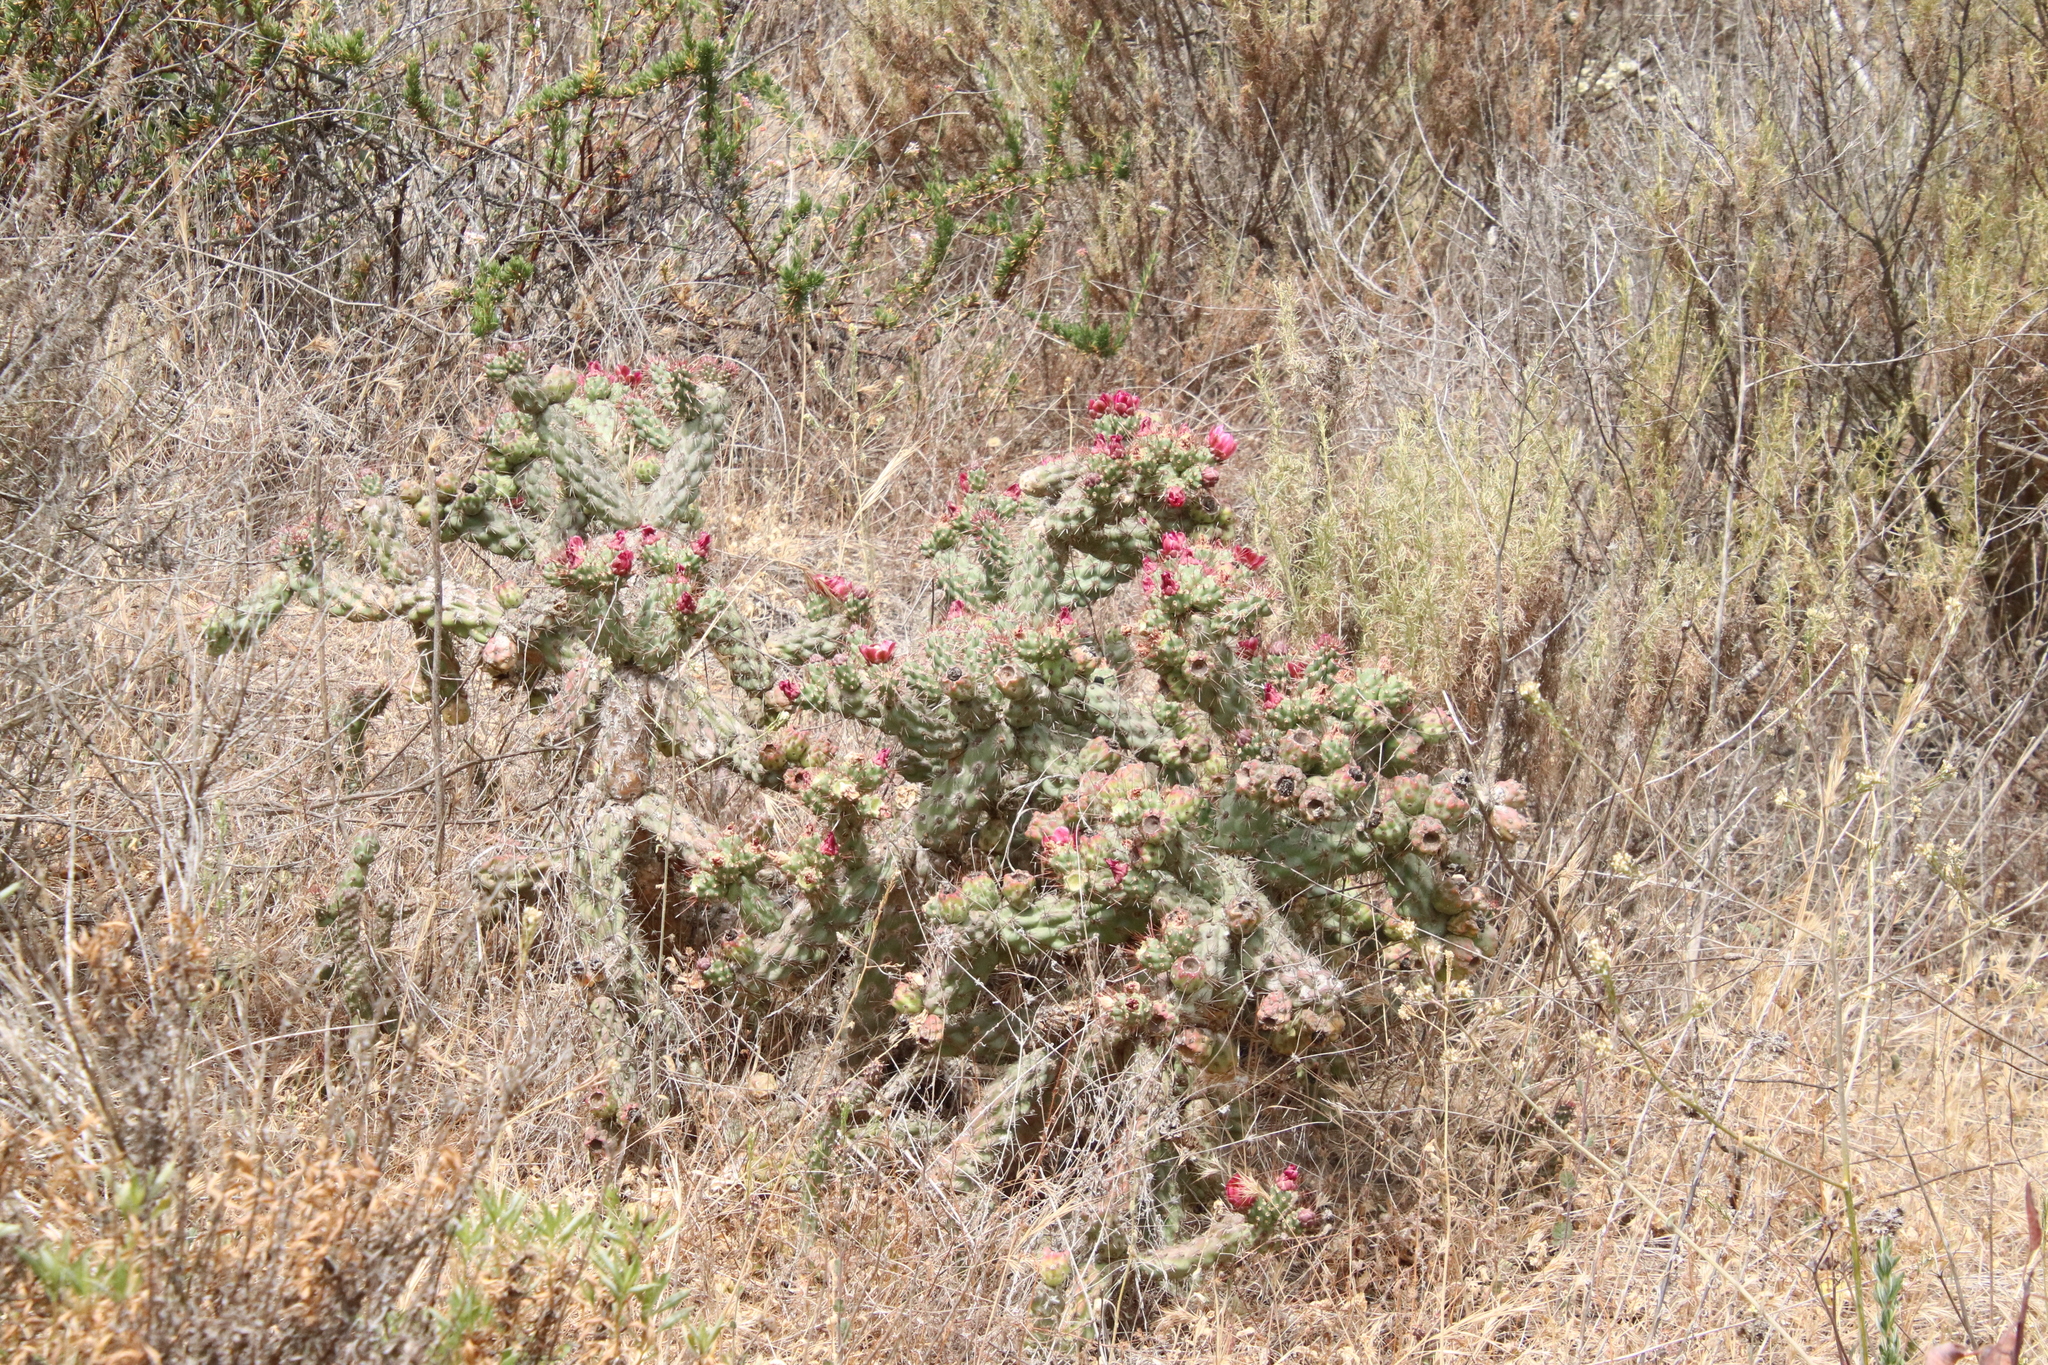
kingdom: Plantae
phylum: Tracheophyta
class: Magnoliopsida
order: Caryophyllales
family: Cactaceae
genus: Cylindropuntia
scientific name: Cylindropuntia prolifera
